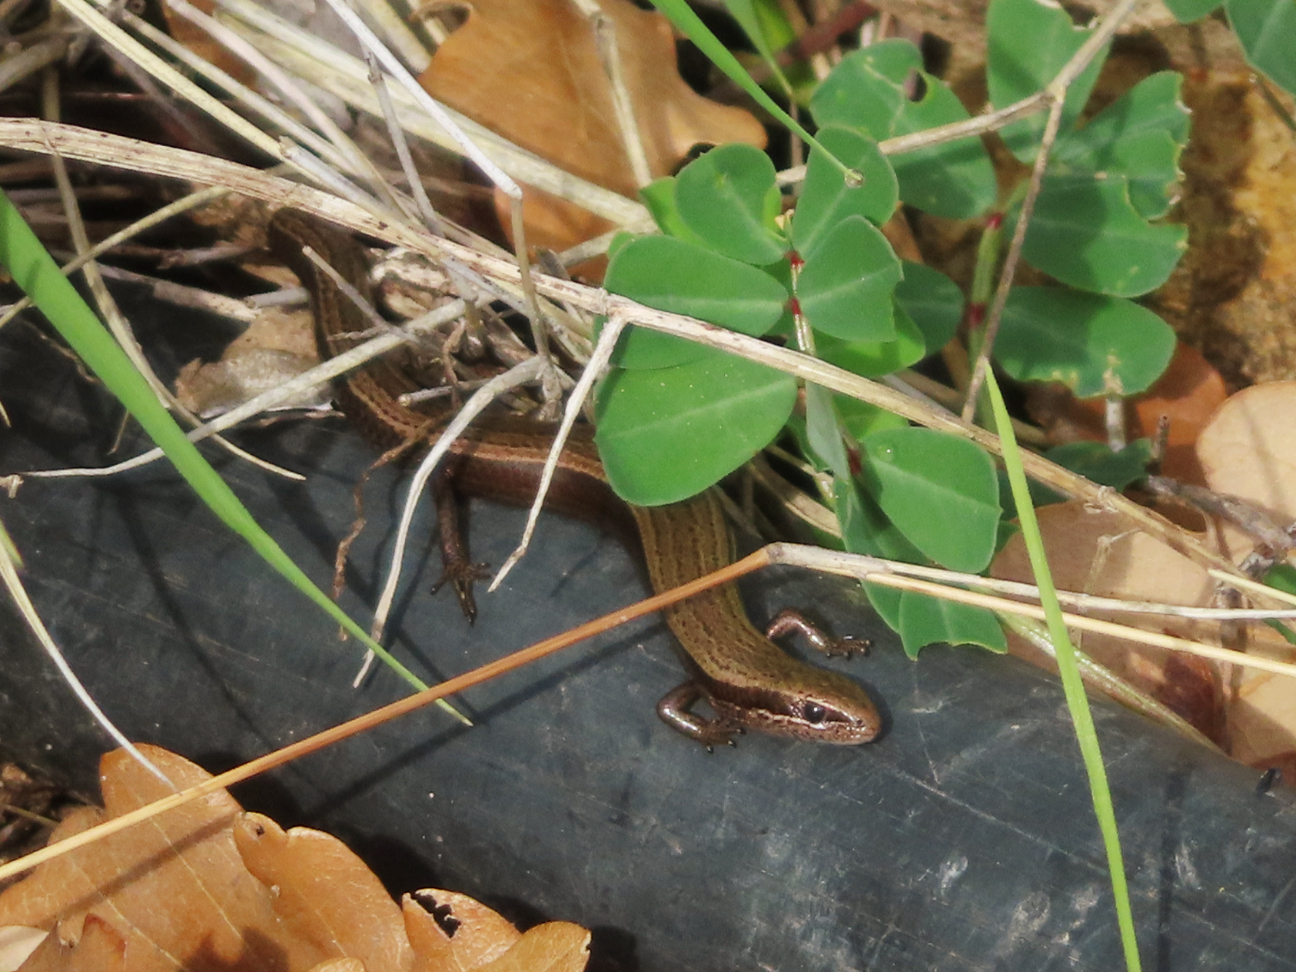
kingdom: Animalia
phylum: Chordata
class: Squamata
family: Scincidae
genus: Ablepharus
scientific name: Ablepharus kitaibelii
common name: Juniper skink
